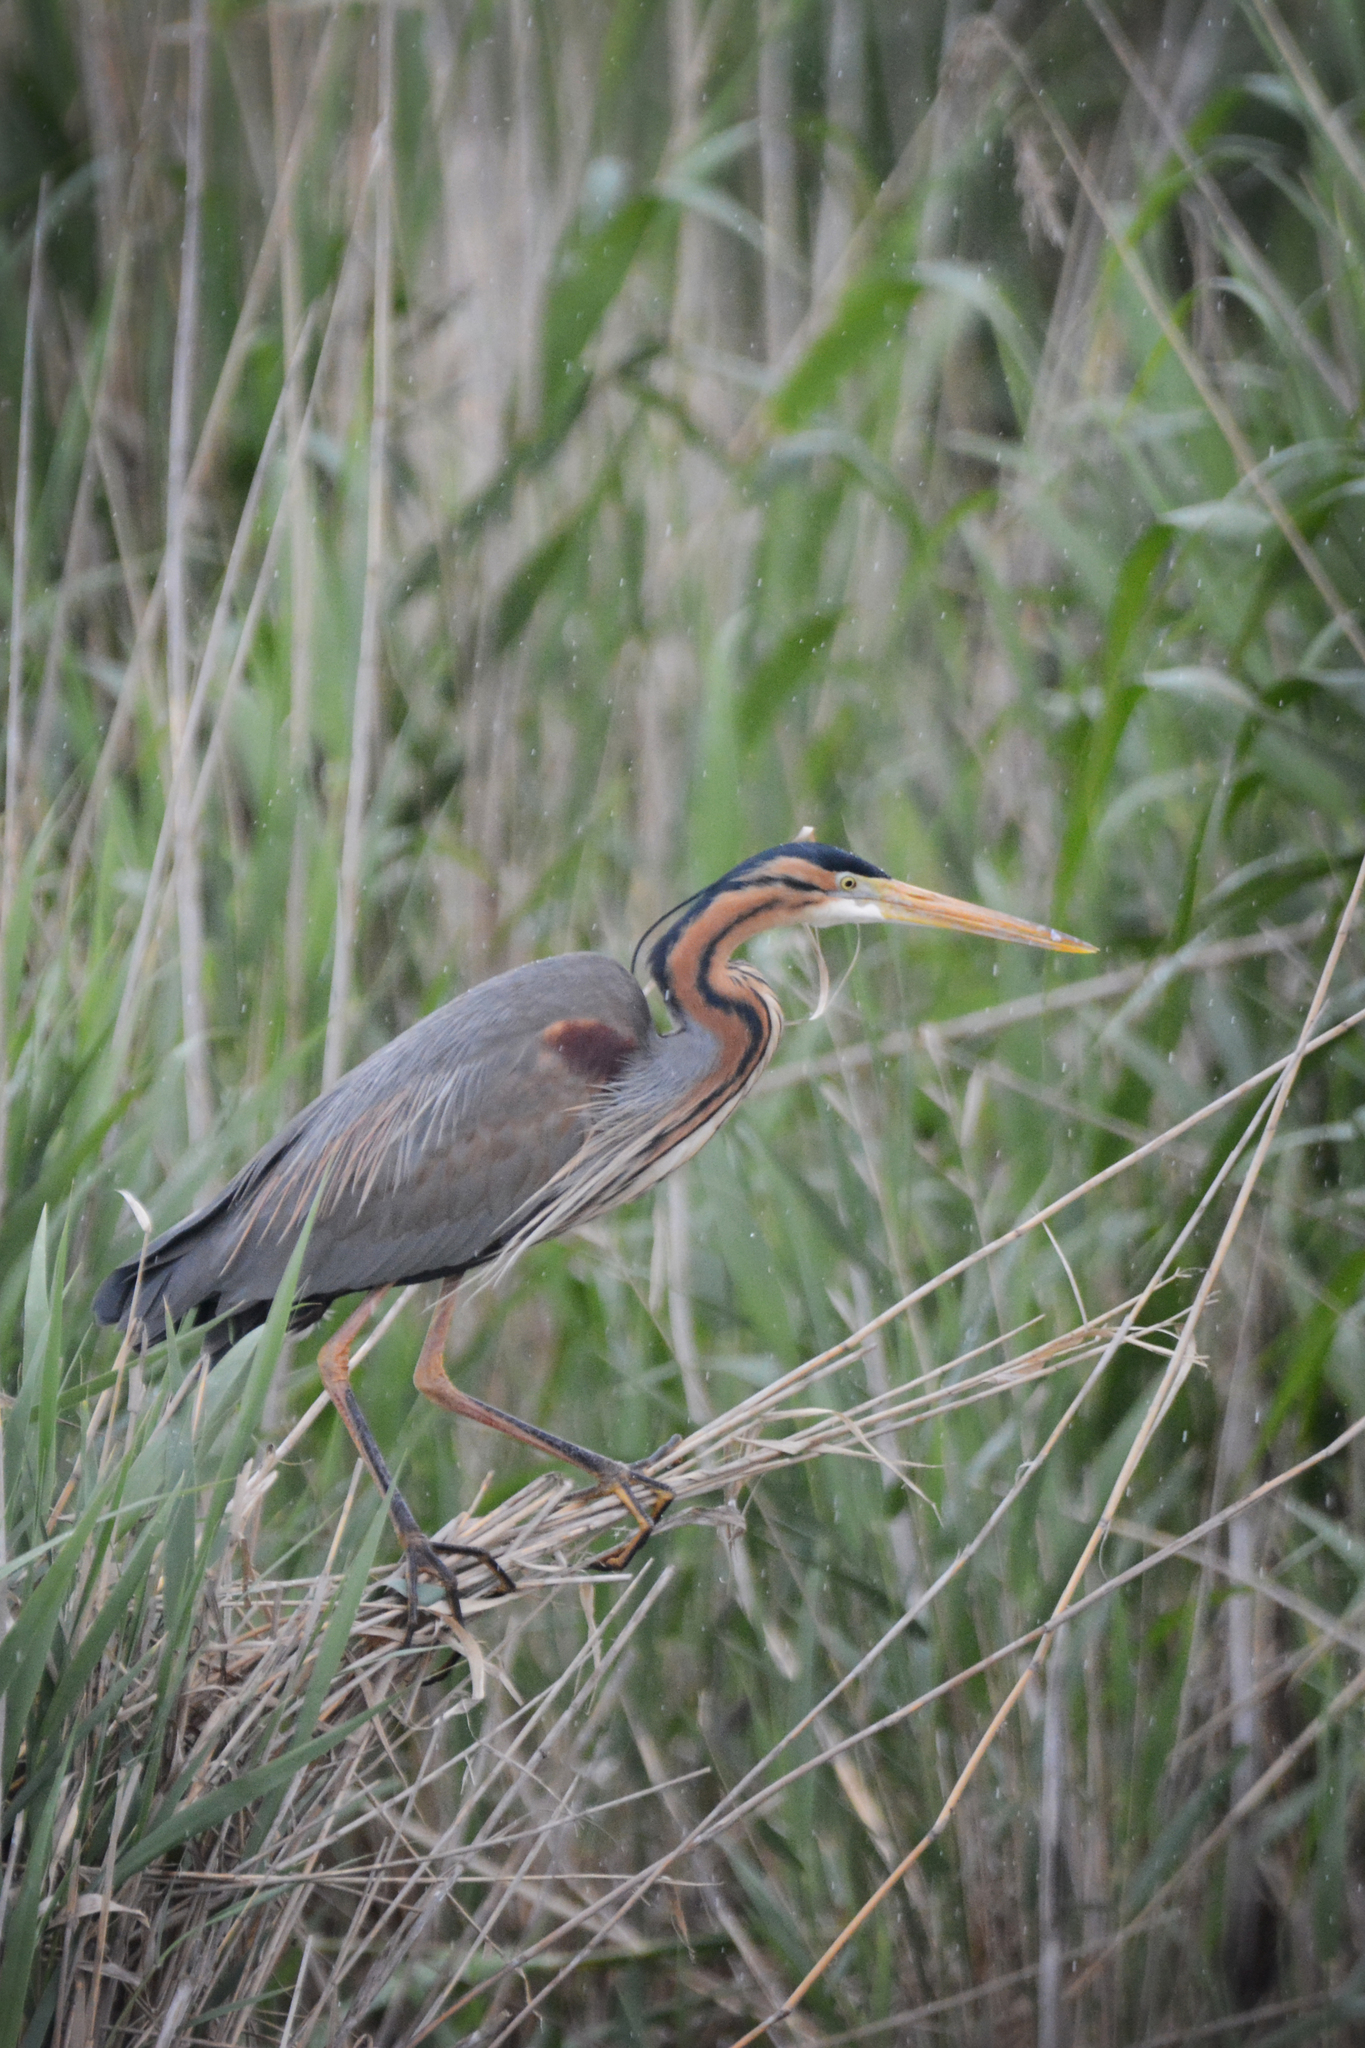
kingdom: Animalia
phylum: Chordata
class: Aves
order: Pelecaniformes
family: Ardeidae
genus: Ardea
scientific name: Ardea purpurea
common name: Purple heron
